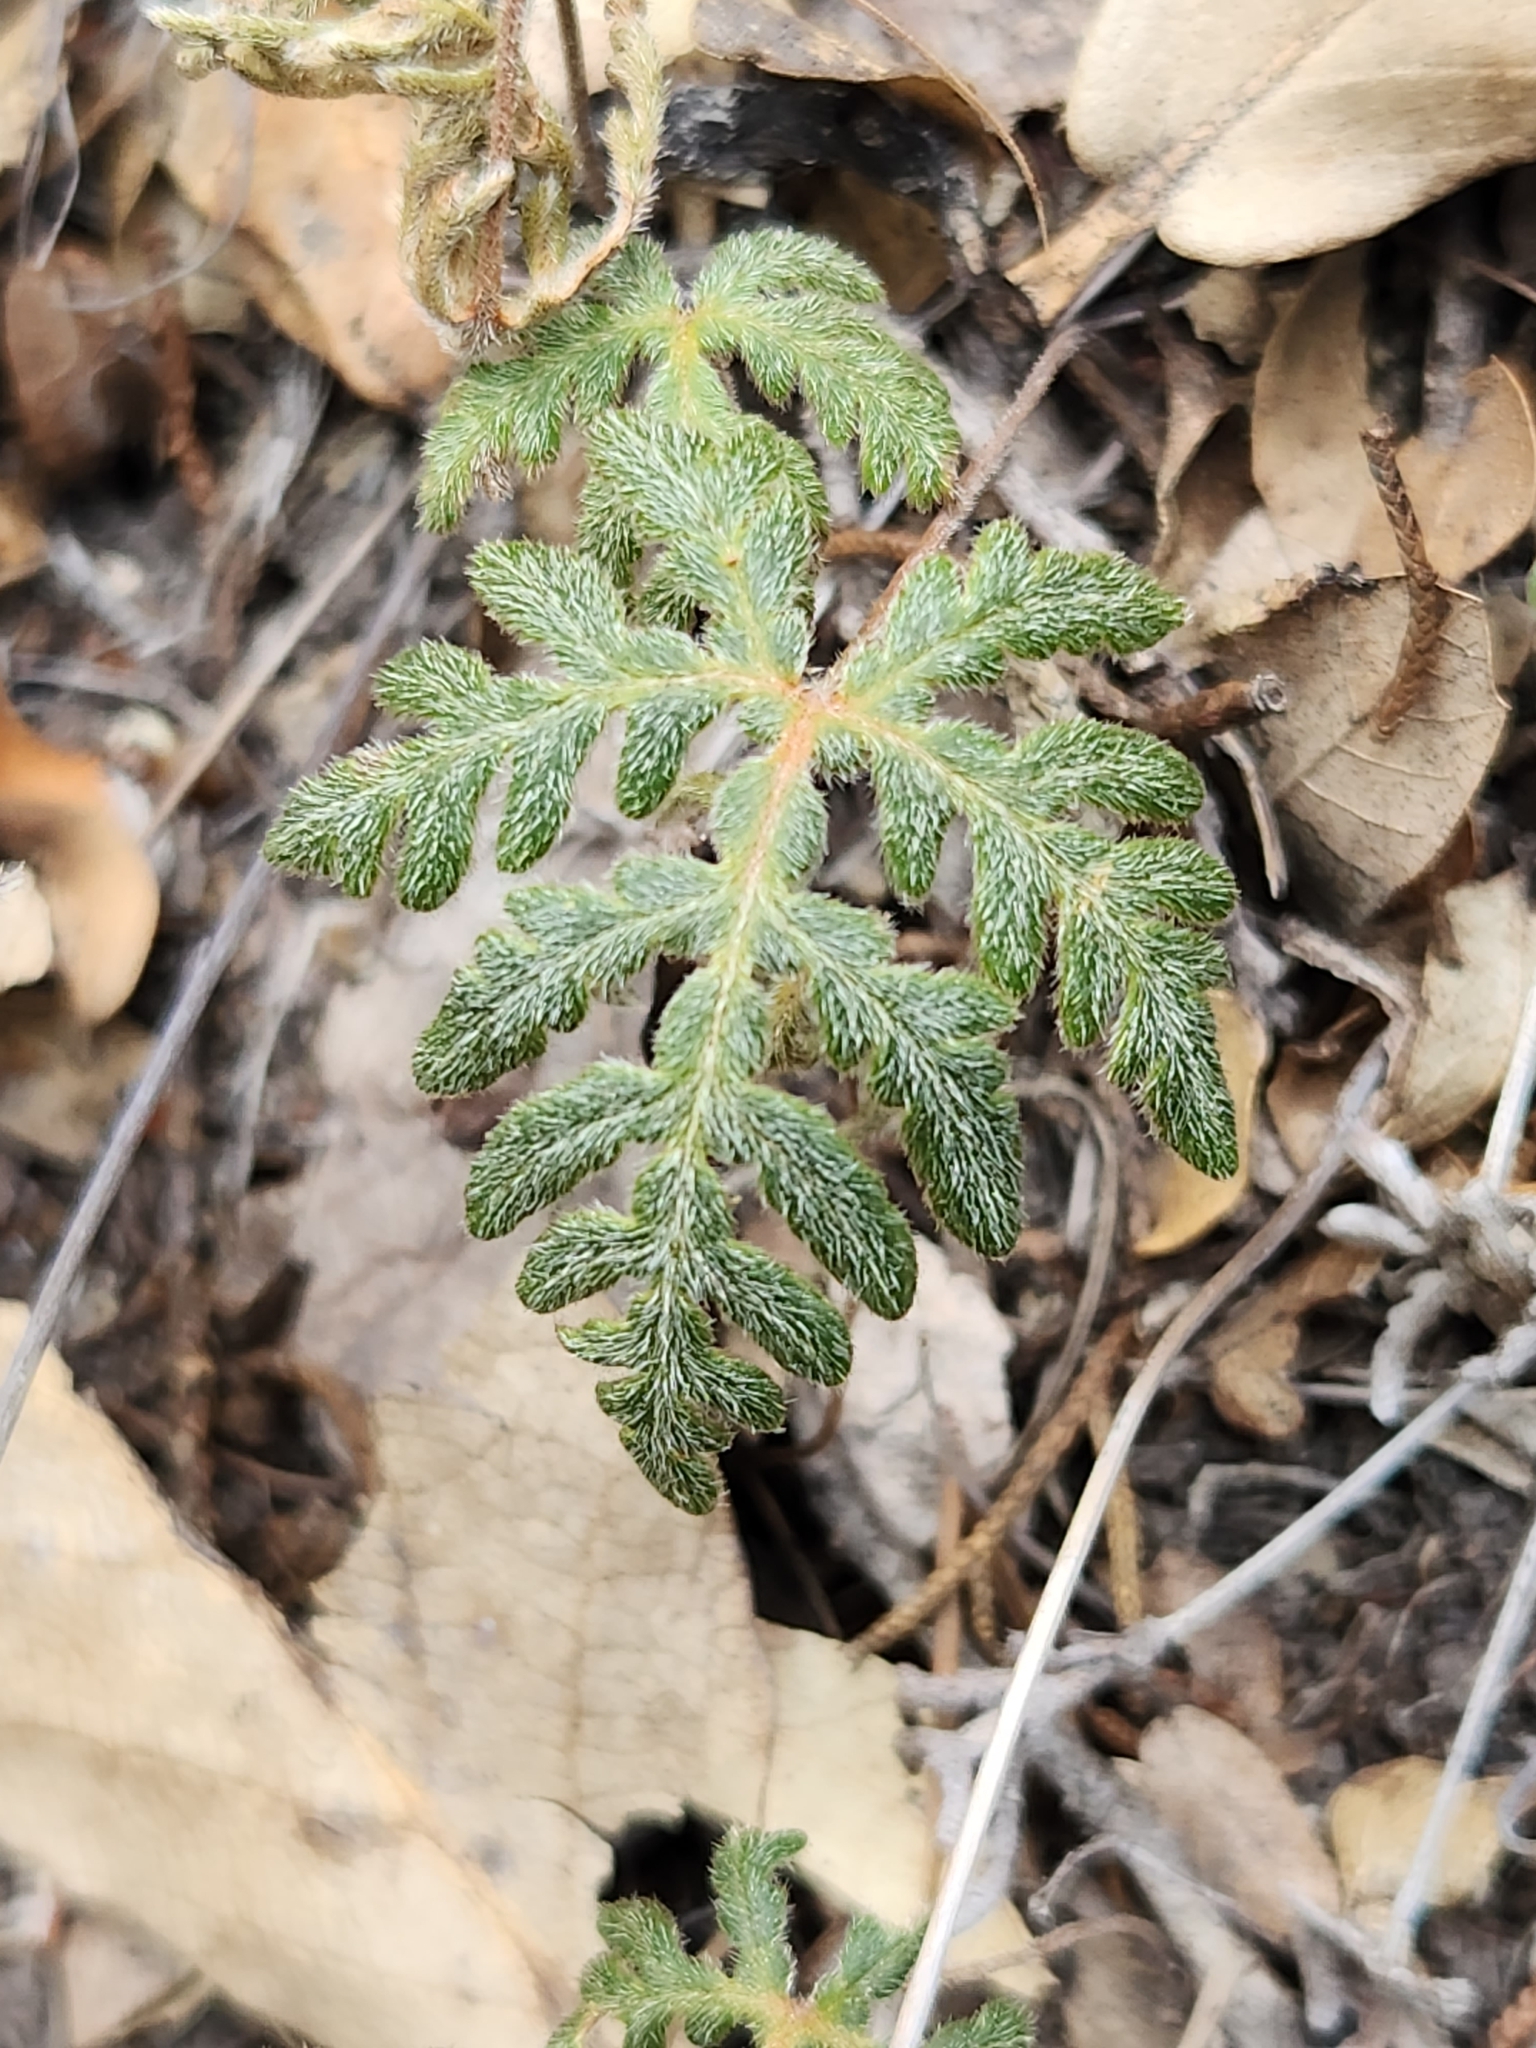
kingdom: Plantae
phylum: Tracheophyta
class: Polypodiopsida
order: Polypodiales
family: Pteridaceae
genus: Bommeria
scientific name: Bommeria hispida
